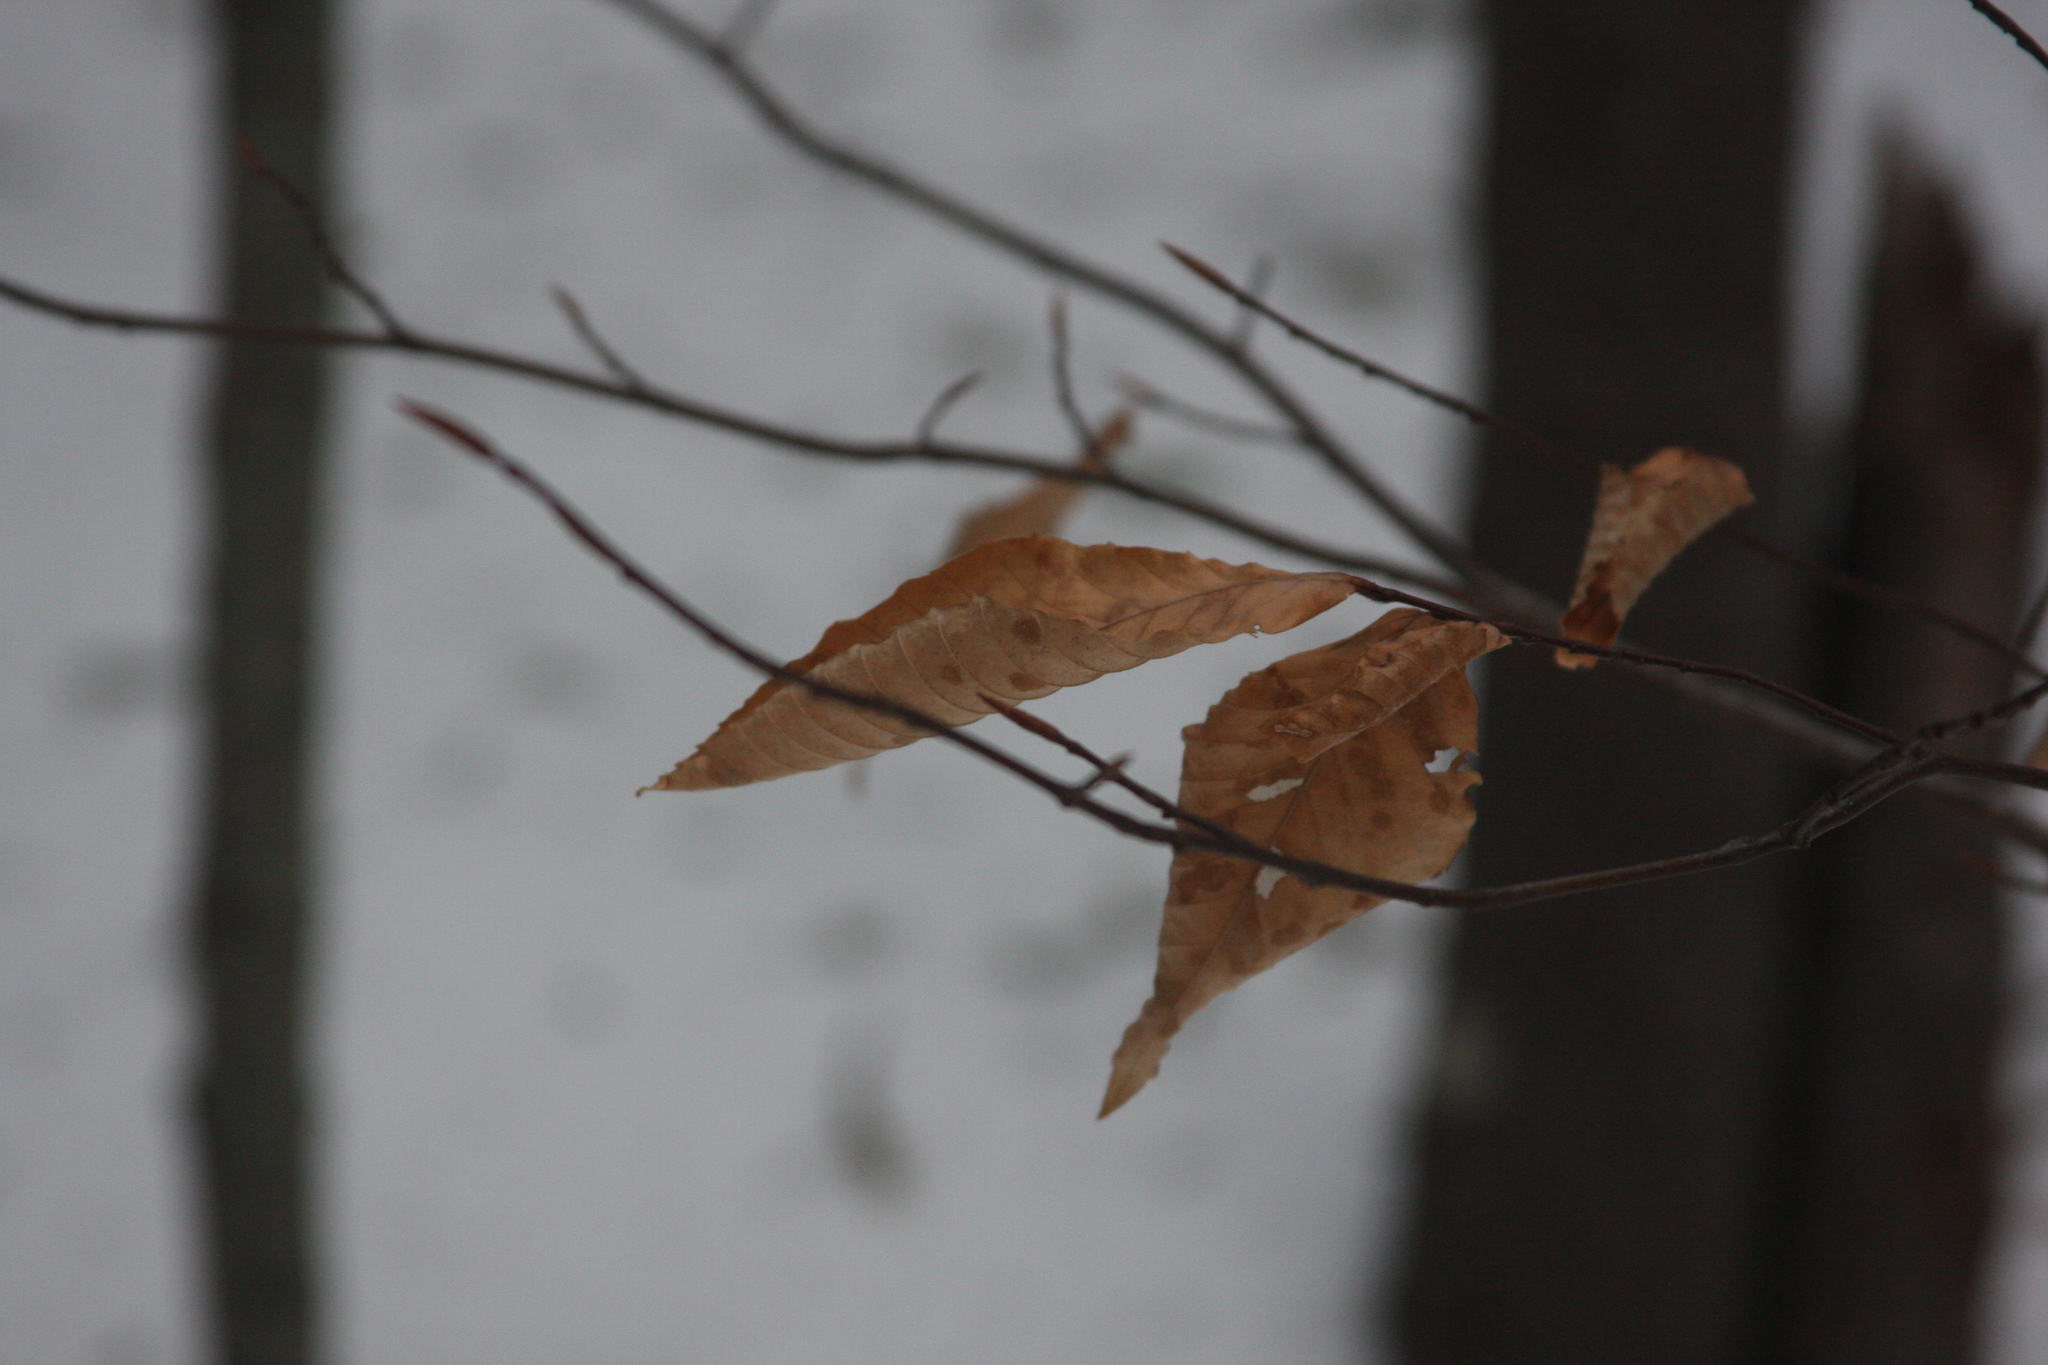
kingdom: Plantae
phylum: Tracheophyta
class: Magnoliopsida
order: Fagales
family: Fagaceae
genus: Fagus
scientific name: Fagus grandifolia
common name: American beech
